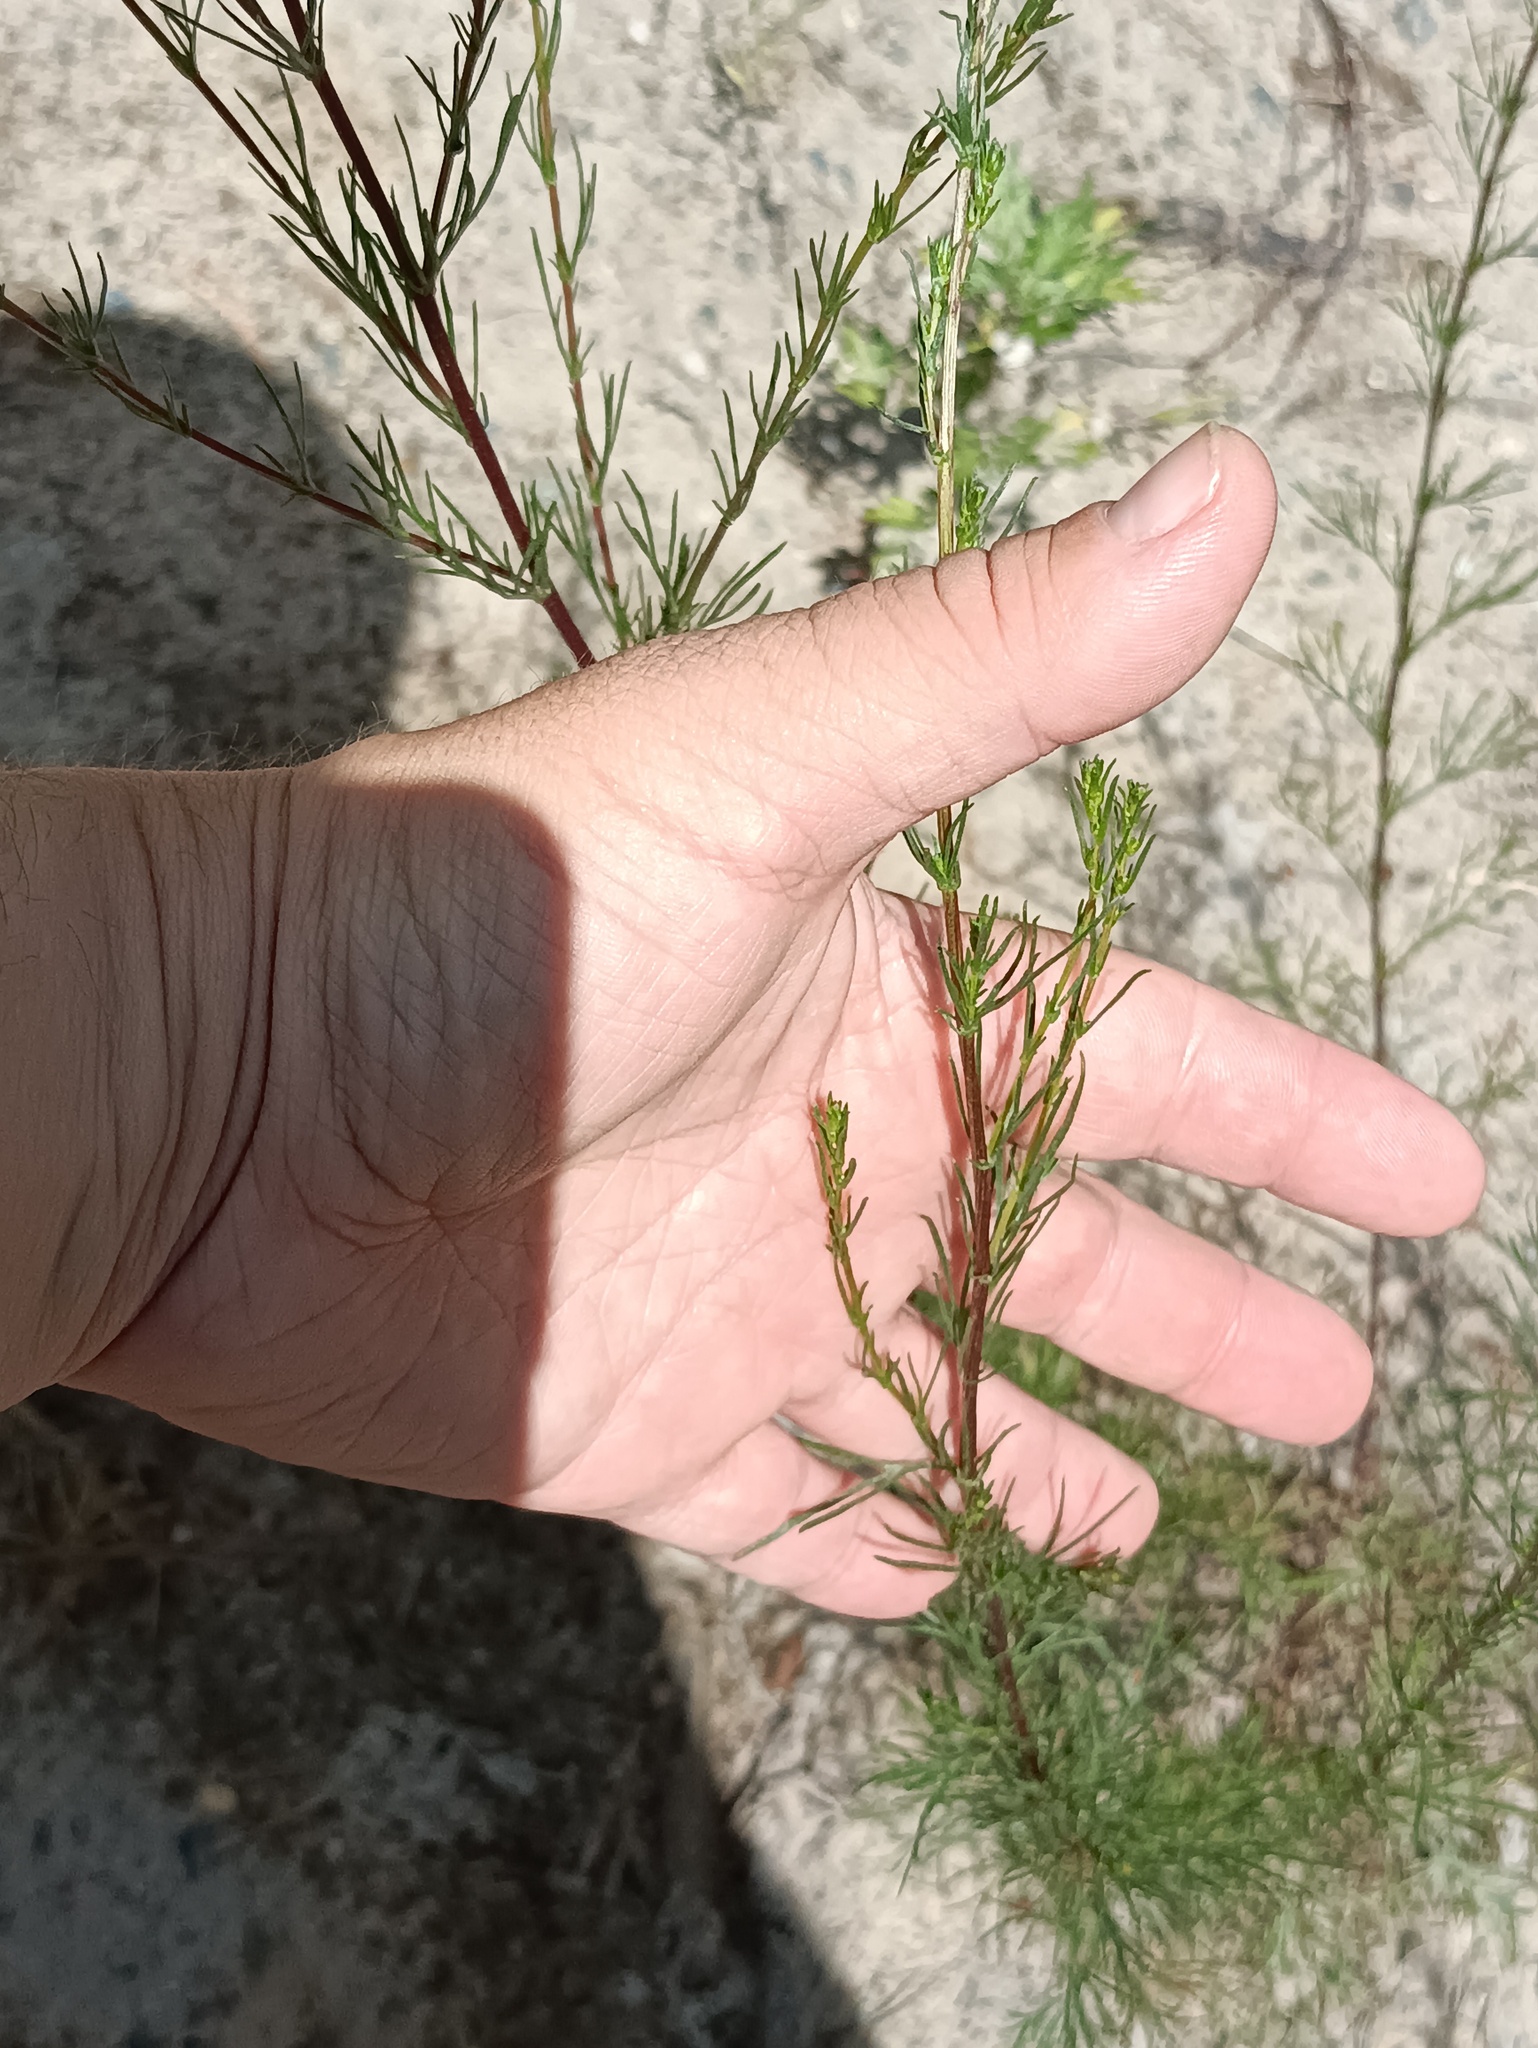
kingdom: Plantae
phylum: Tracheophyta
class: Magnoliopsida
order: Asterales
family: Asteraceae
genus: Artemisia
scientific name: Artemisia campestris
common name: Field wormwood
